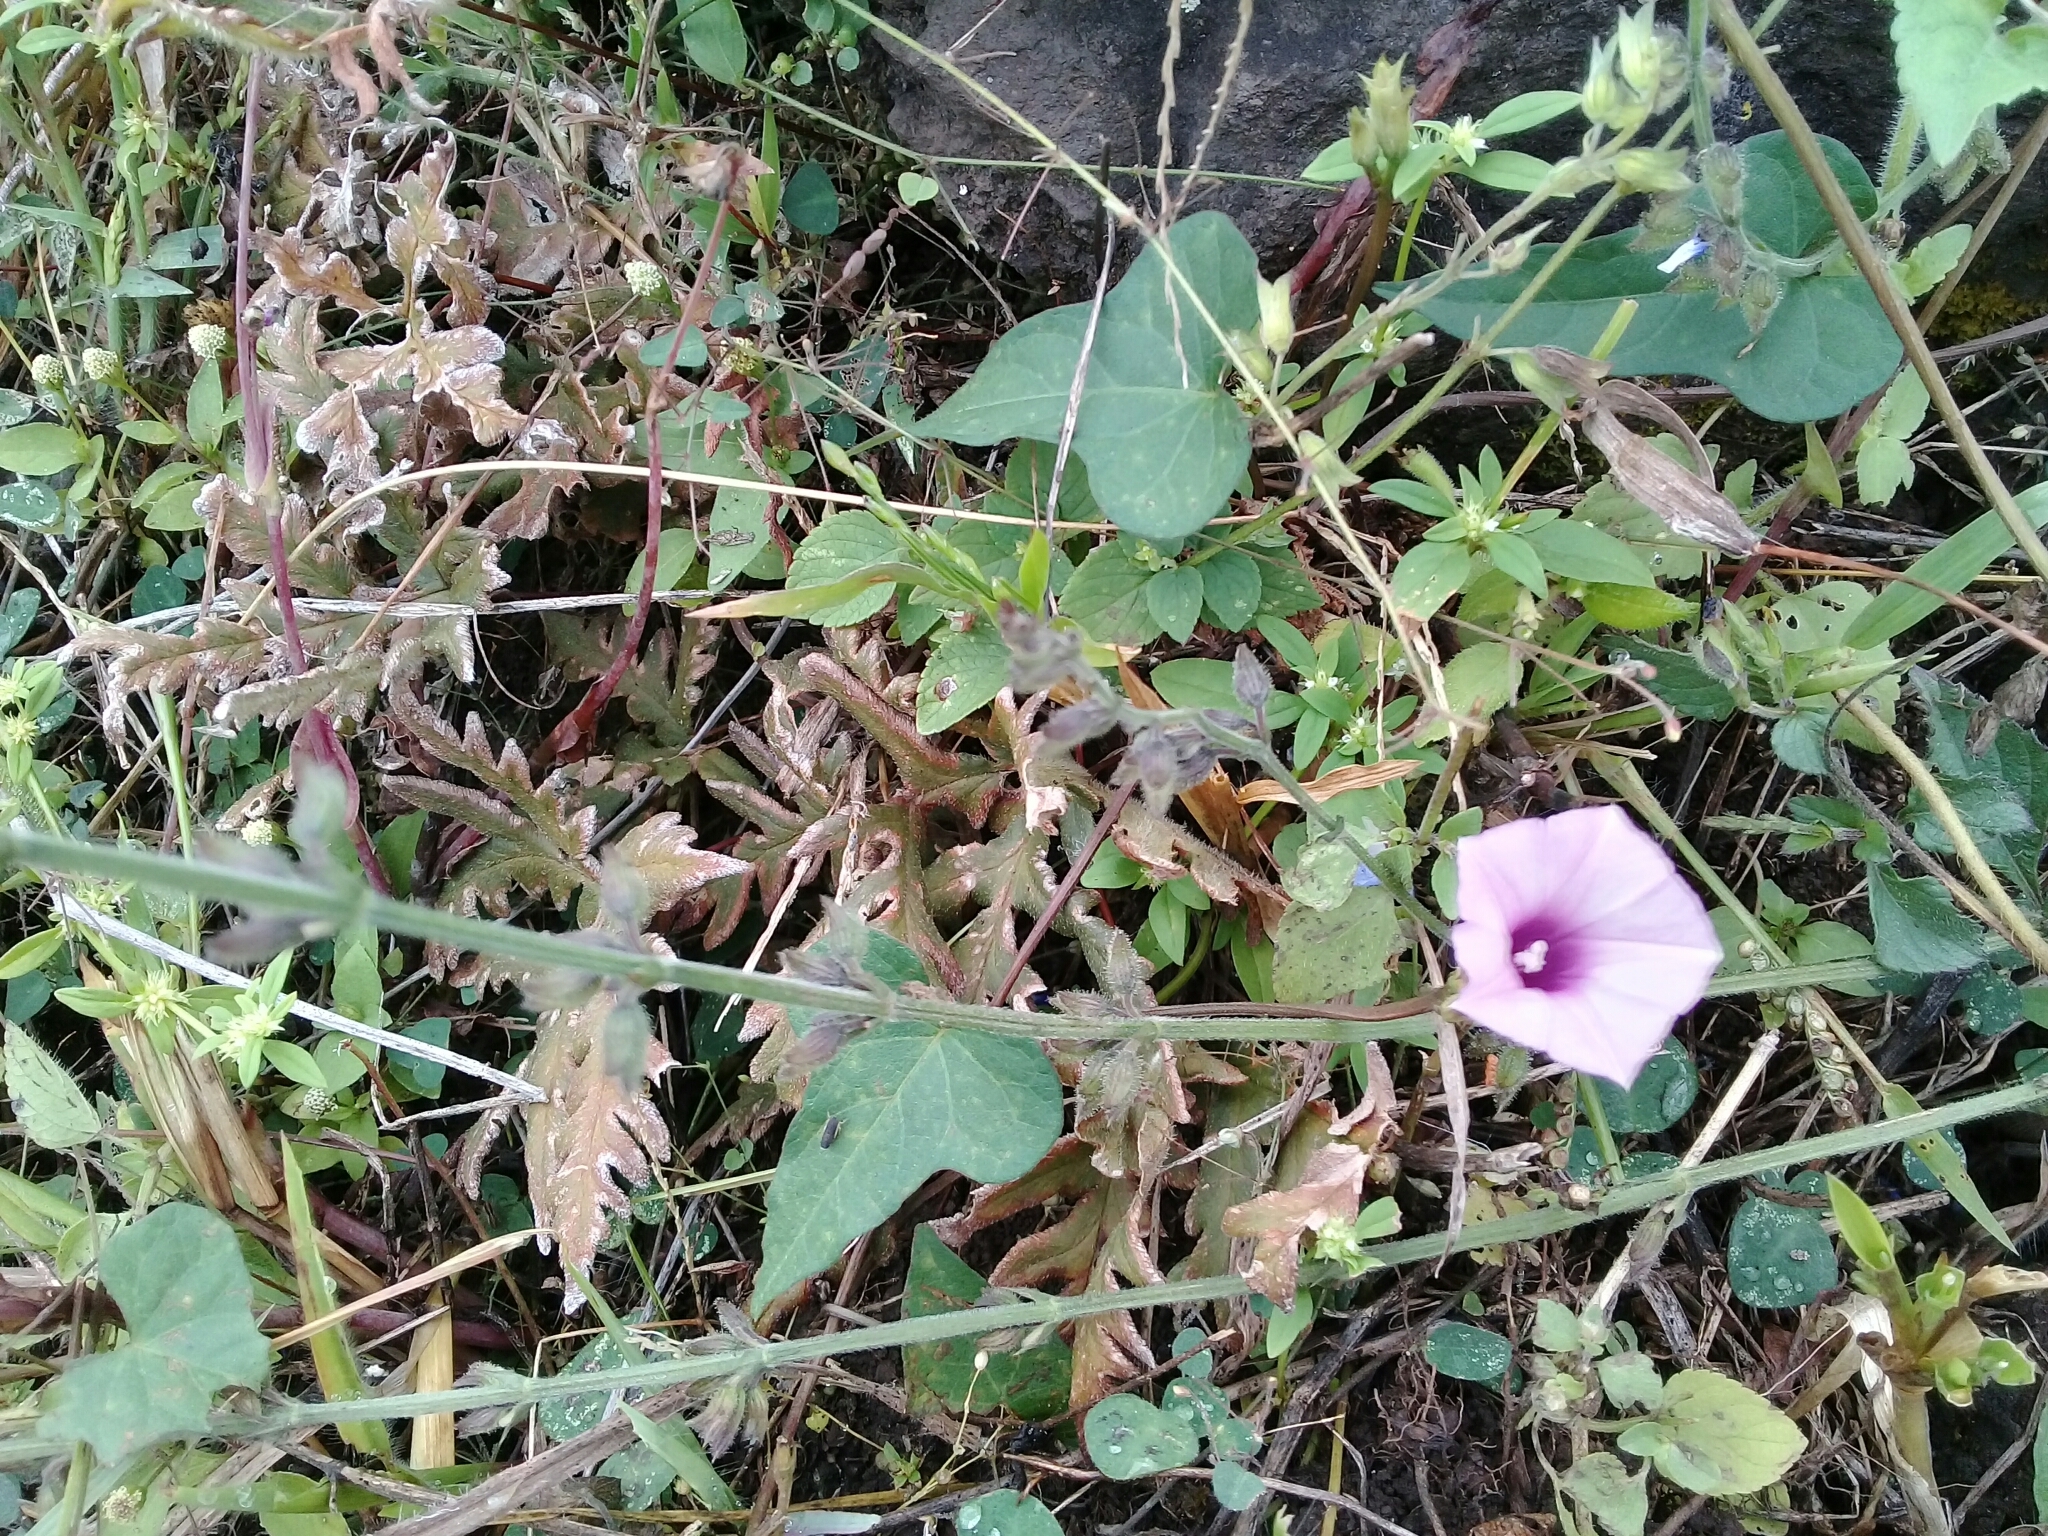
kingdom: Plantae
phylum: Tracheophyta
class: Magnoliopsida
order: Solanales
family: Convolvulaceae
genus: Ipomoea
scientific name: Ipomoea triloba
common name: Little-bell
